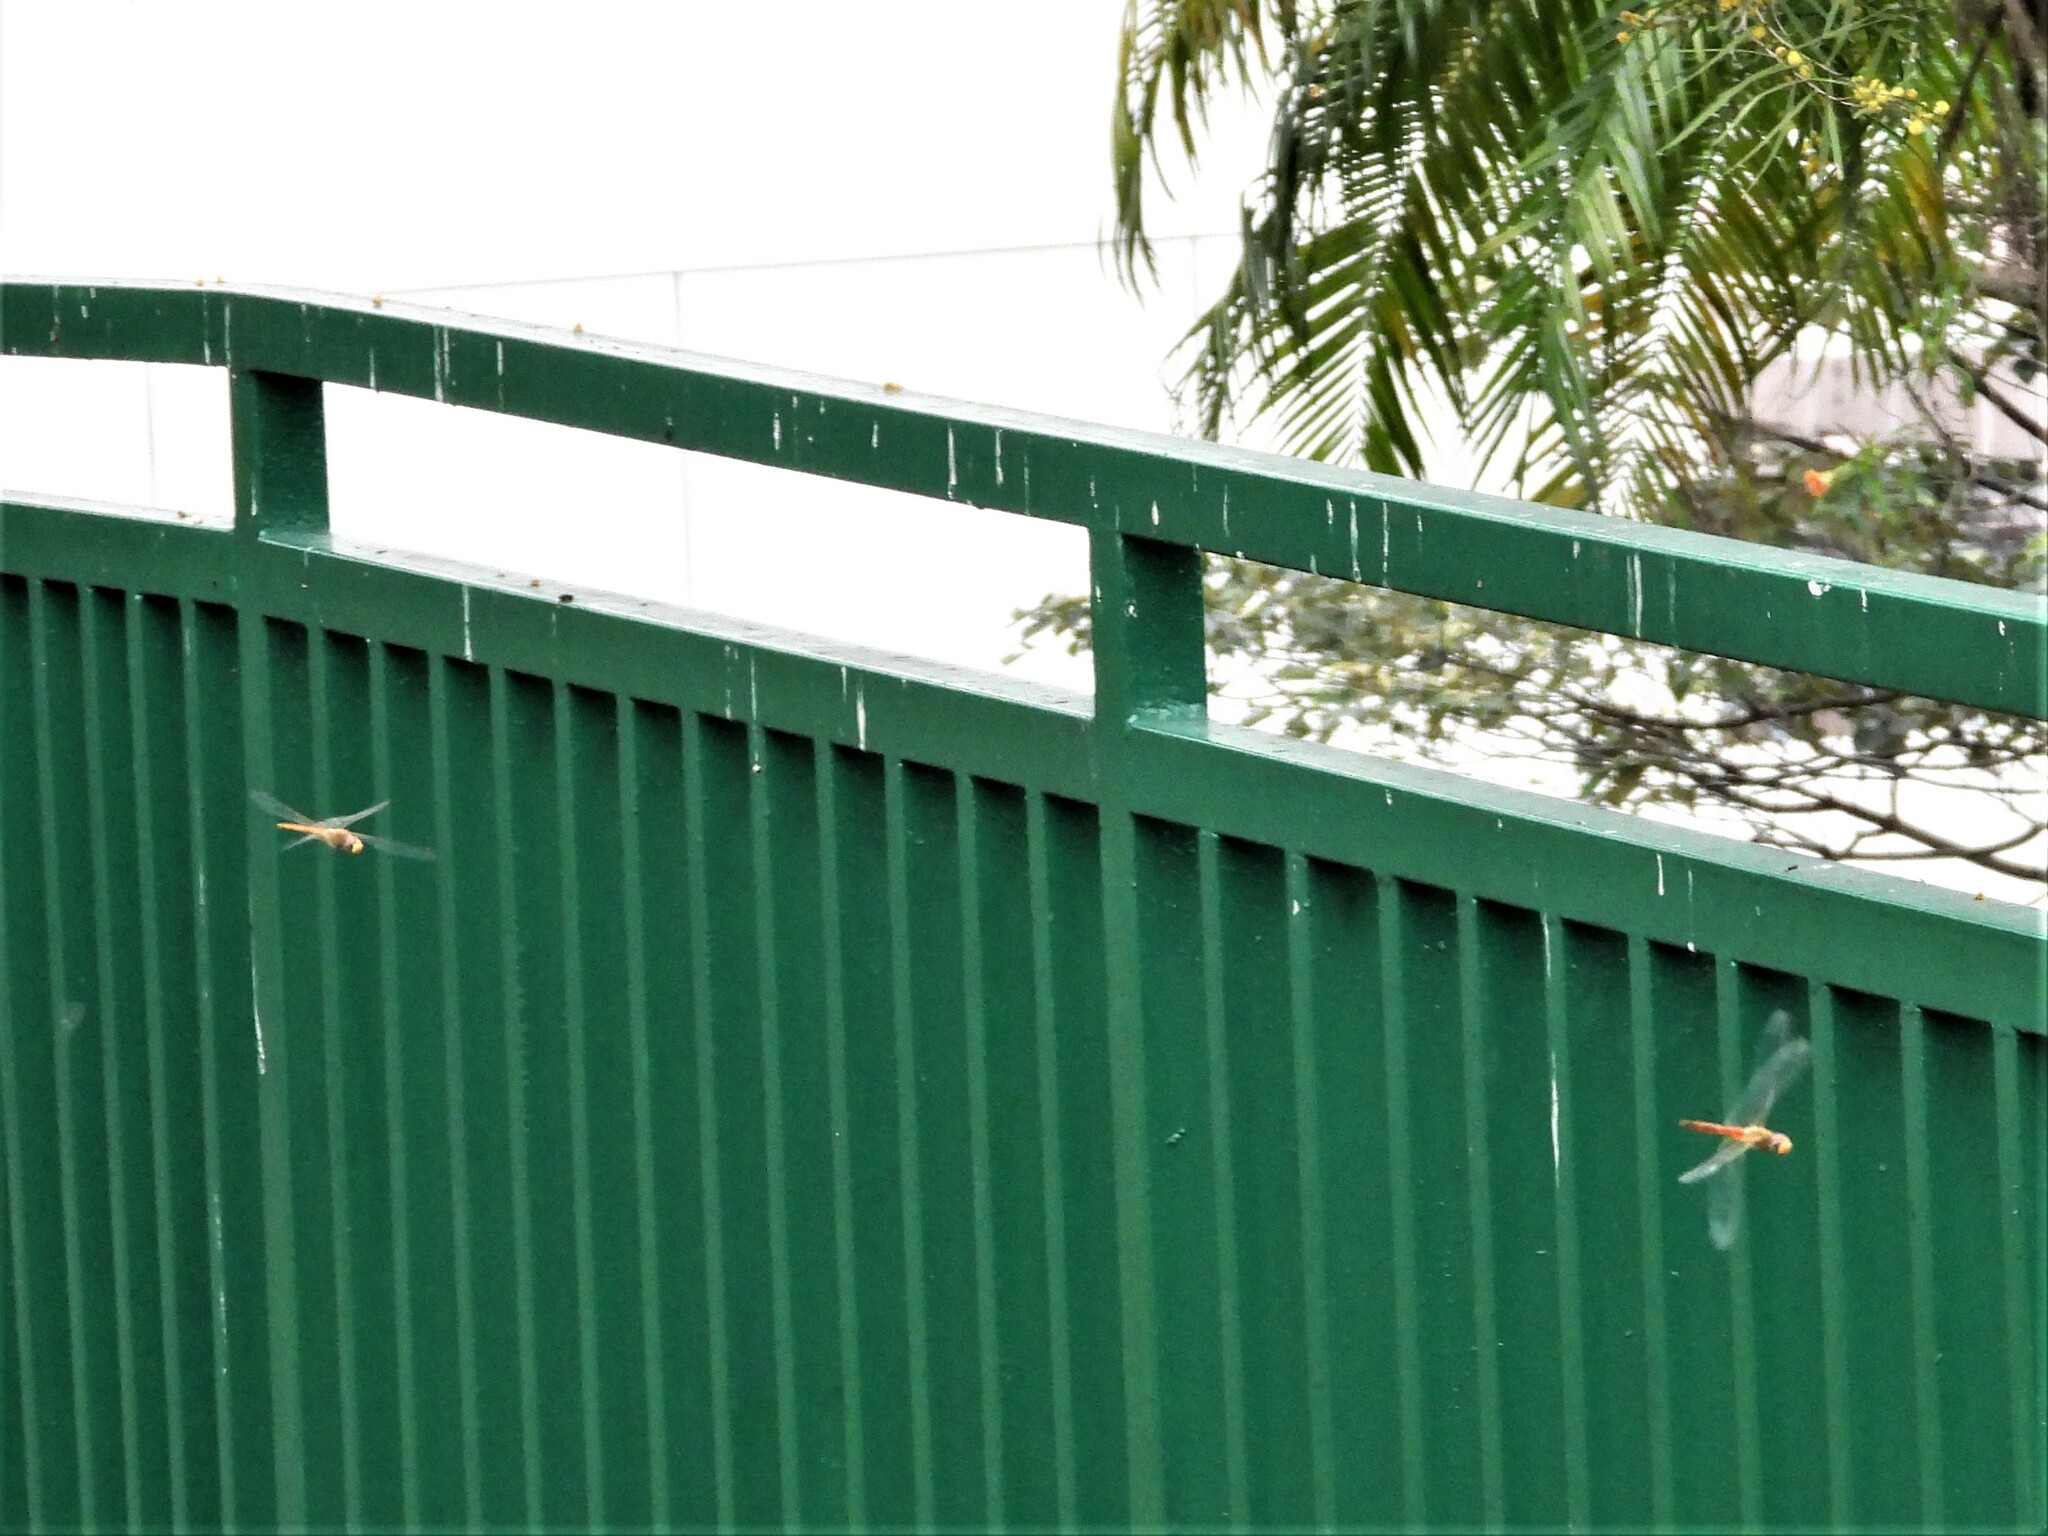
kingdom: Animalia
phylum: Arthropoda
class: Insecta
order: Odonata
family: Libellulidae
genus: Pantala
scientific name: Pantala flavescens
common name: Wandering glider
